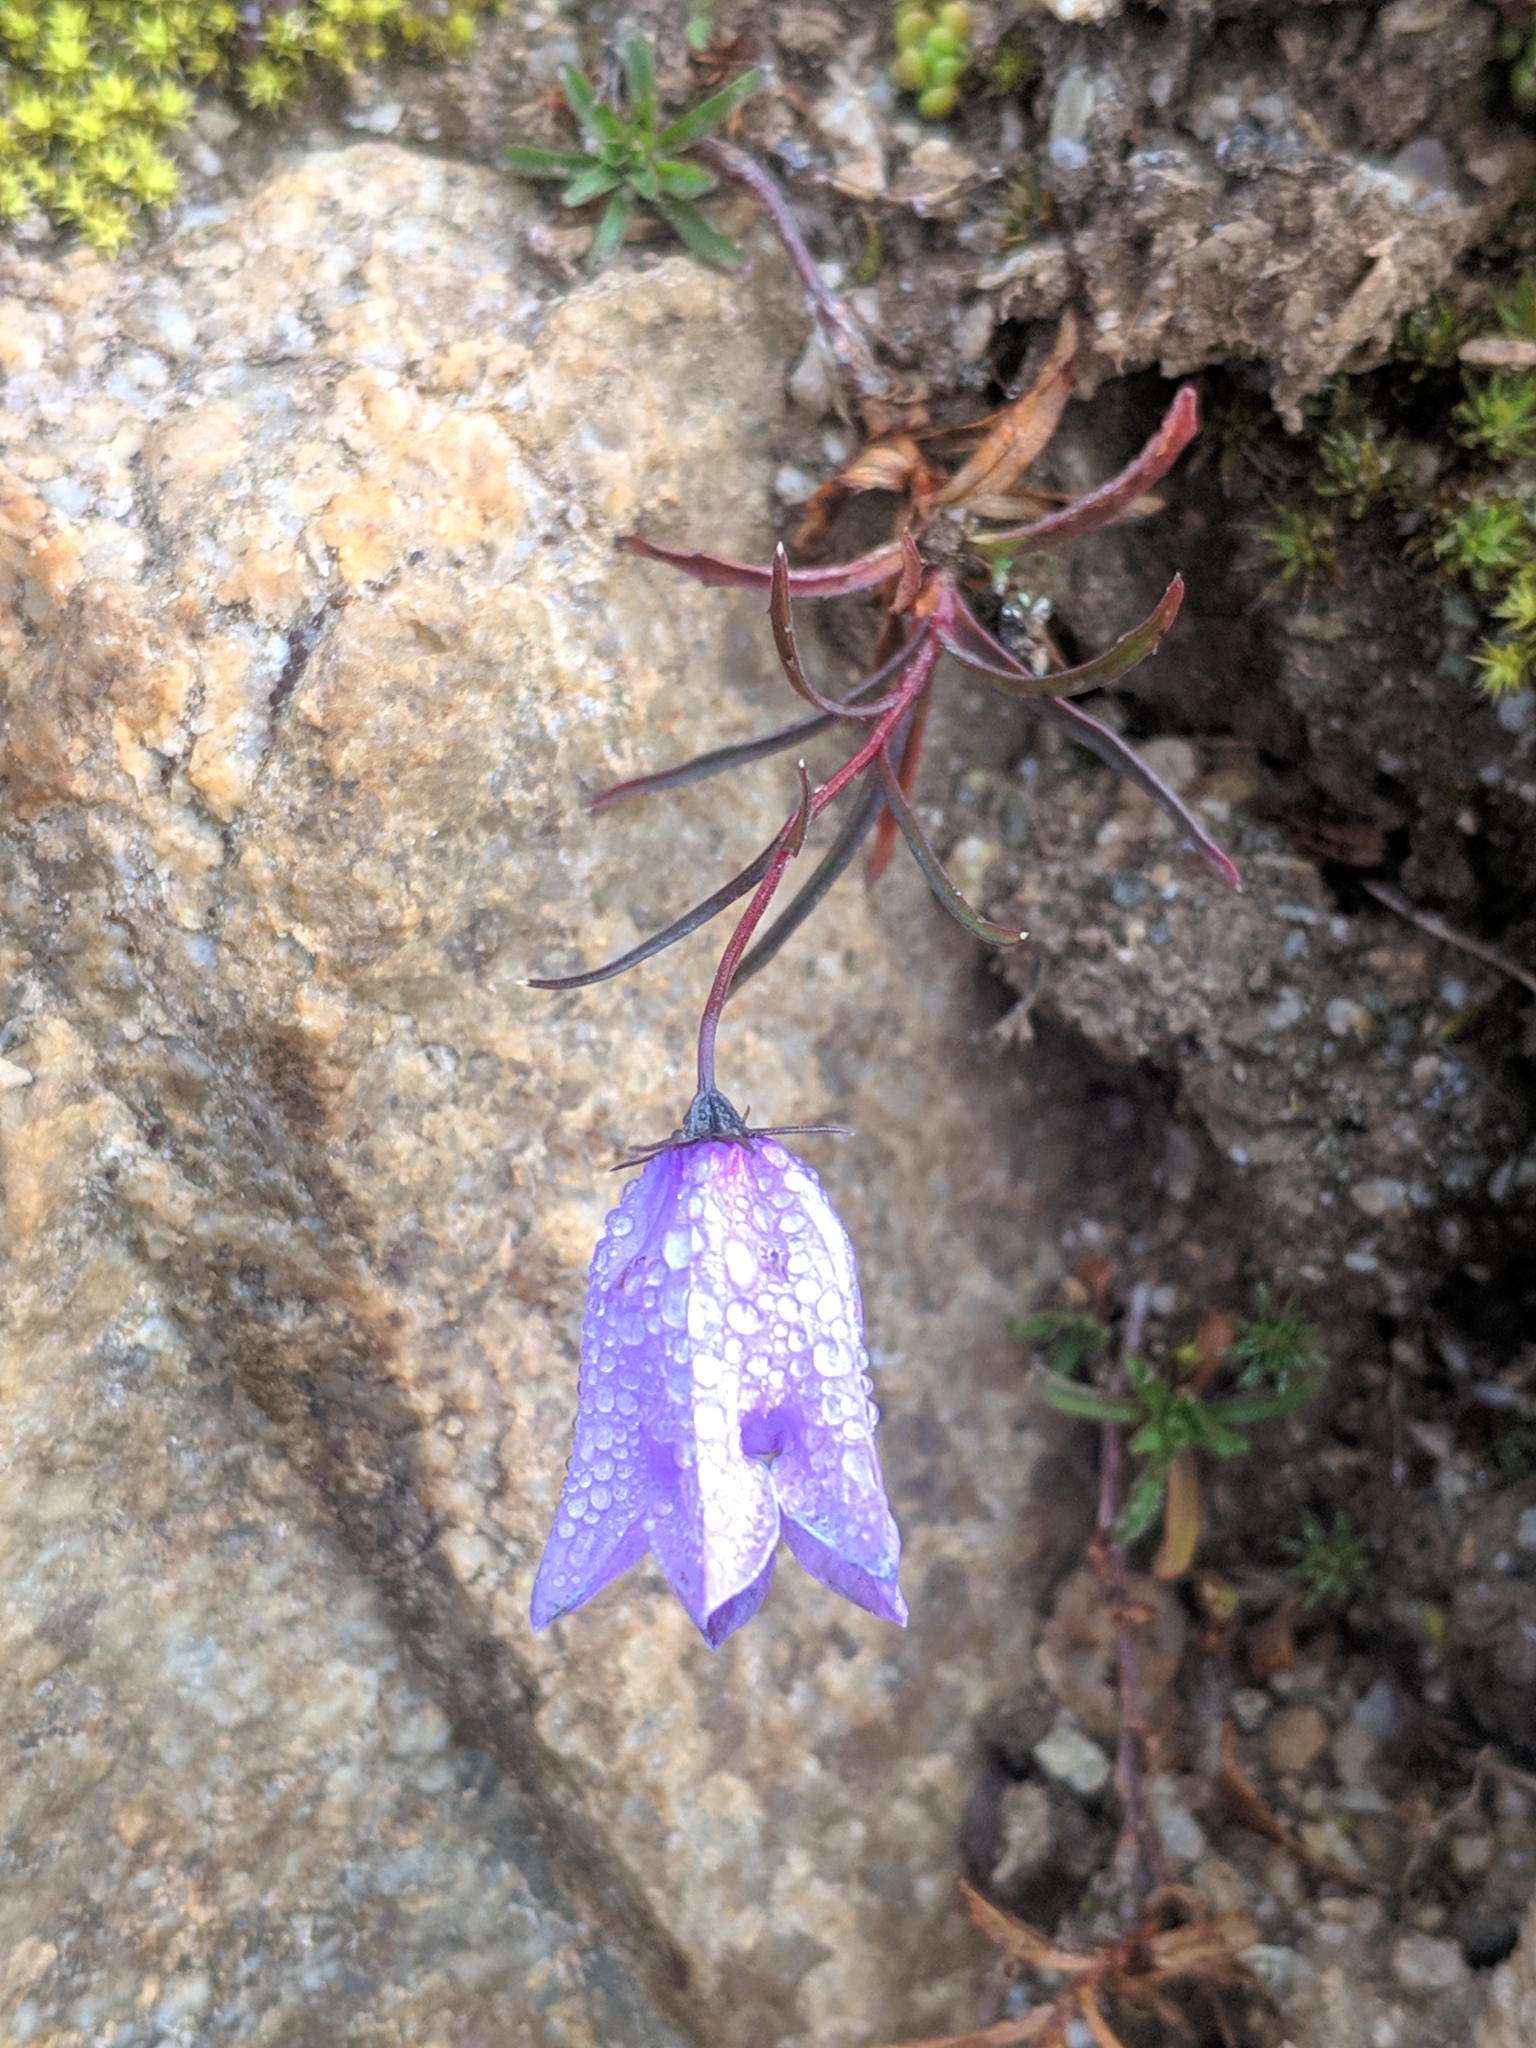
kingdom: Plantae
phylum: Tracheophyta
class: Magnoliopsida
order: Asterales
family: Campanulaceae
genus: Campanula
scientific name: Campanula excisa
